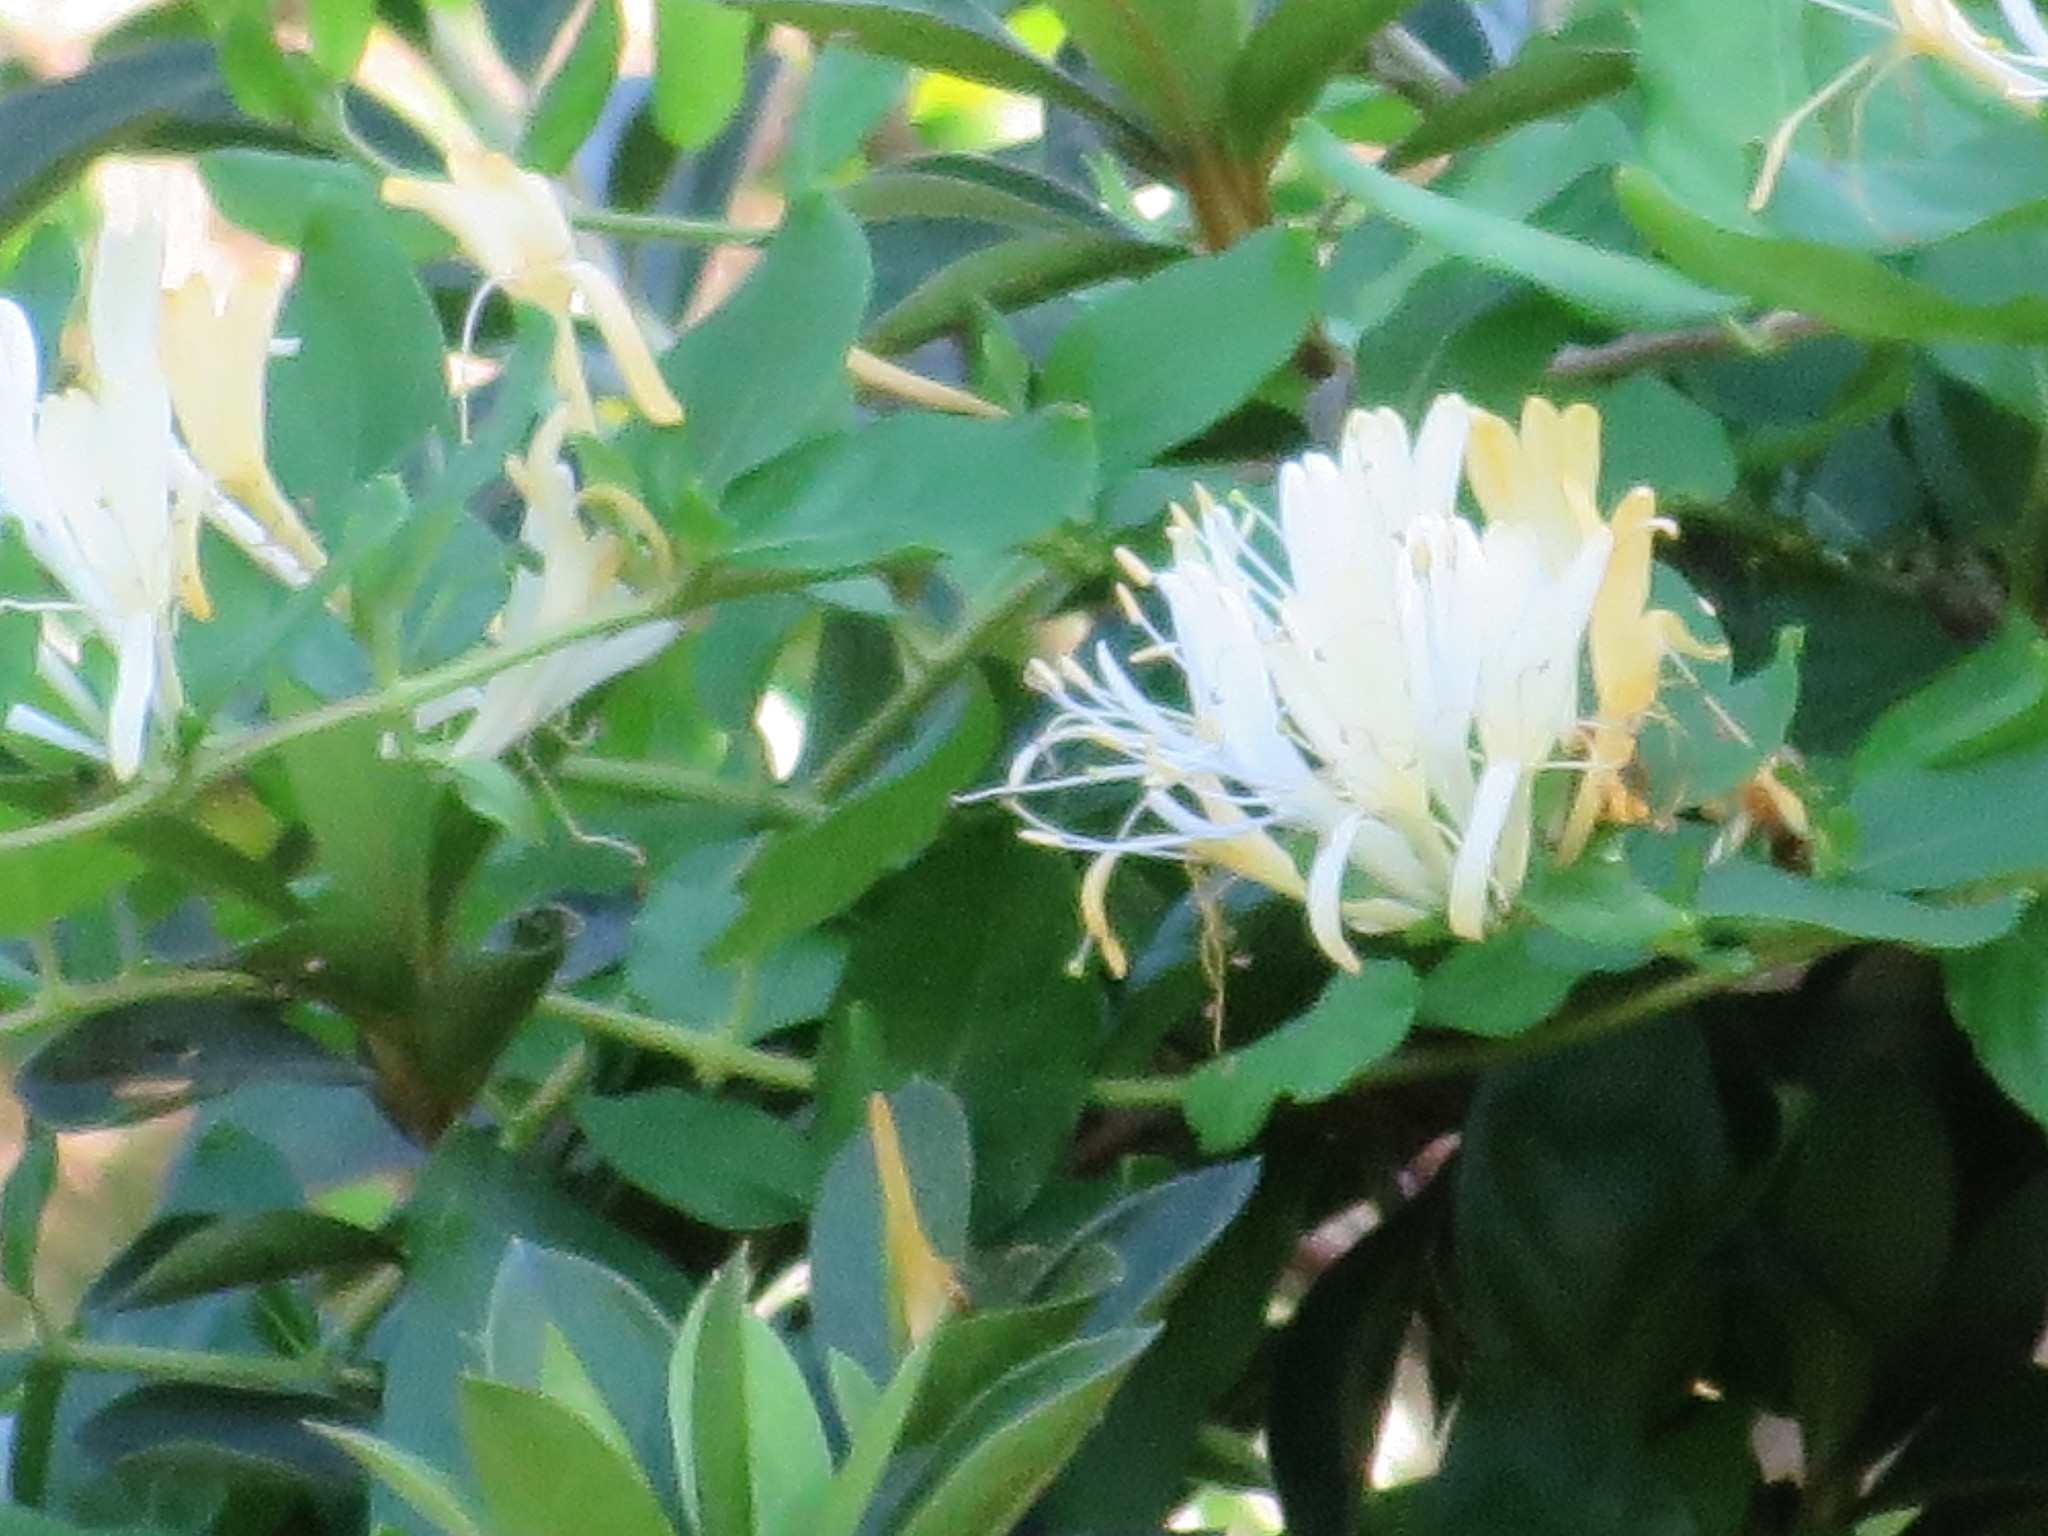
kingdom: Plantae
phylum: Tracheophyta
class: Magnoliopsida
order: Dipsacales
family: Caprifoliaceae
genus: Lonicera
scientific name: Lonicera japonica
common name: Japanese honeysuckle
